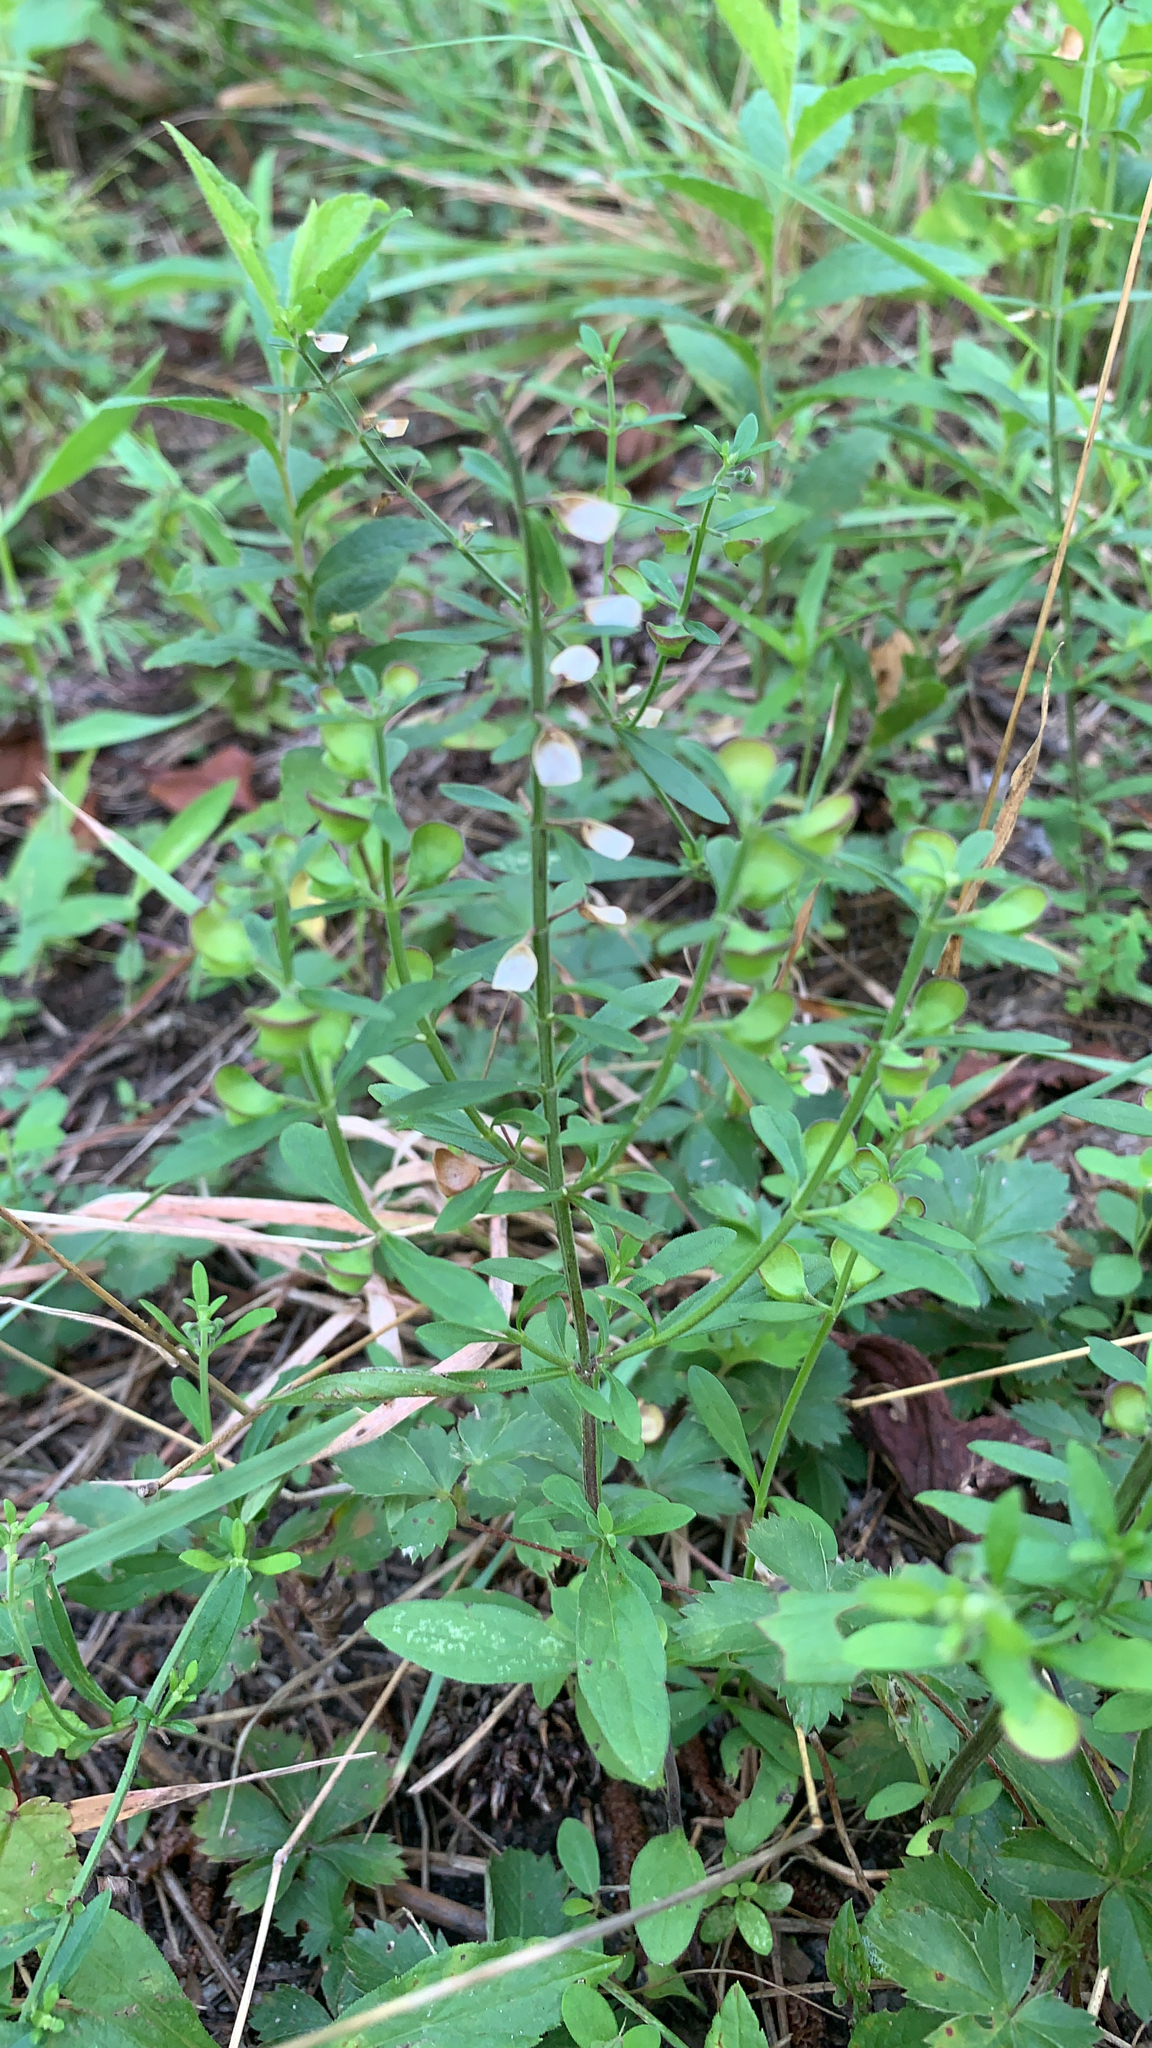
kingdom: Plantae
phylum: Tracheophyta
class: Magnoliopsida
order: Lamiales
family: Lamiaceae
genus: Scutellaria
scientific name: Scutellaria integrifolia
